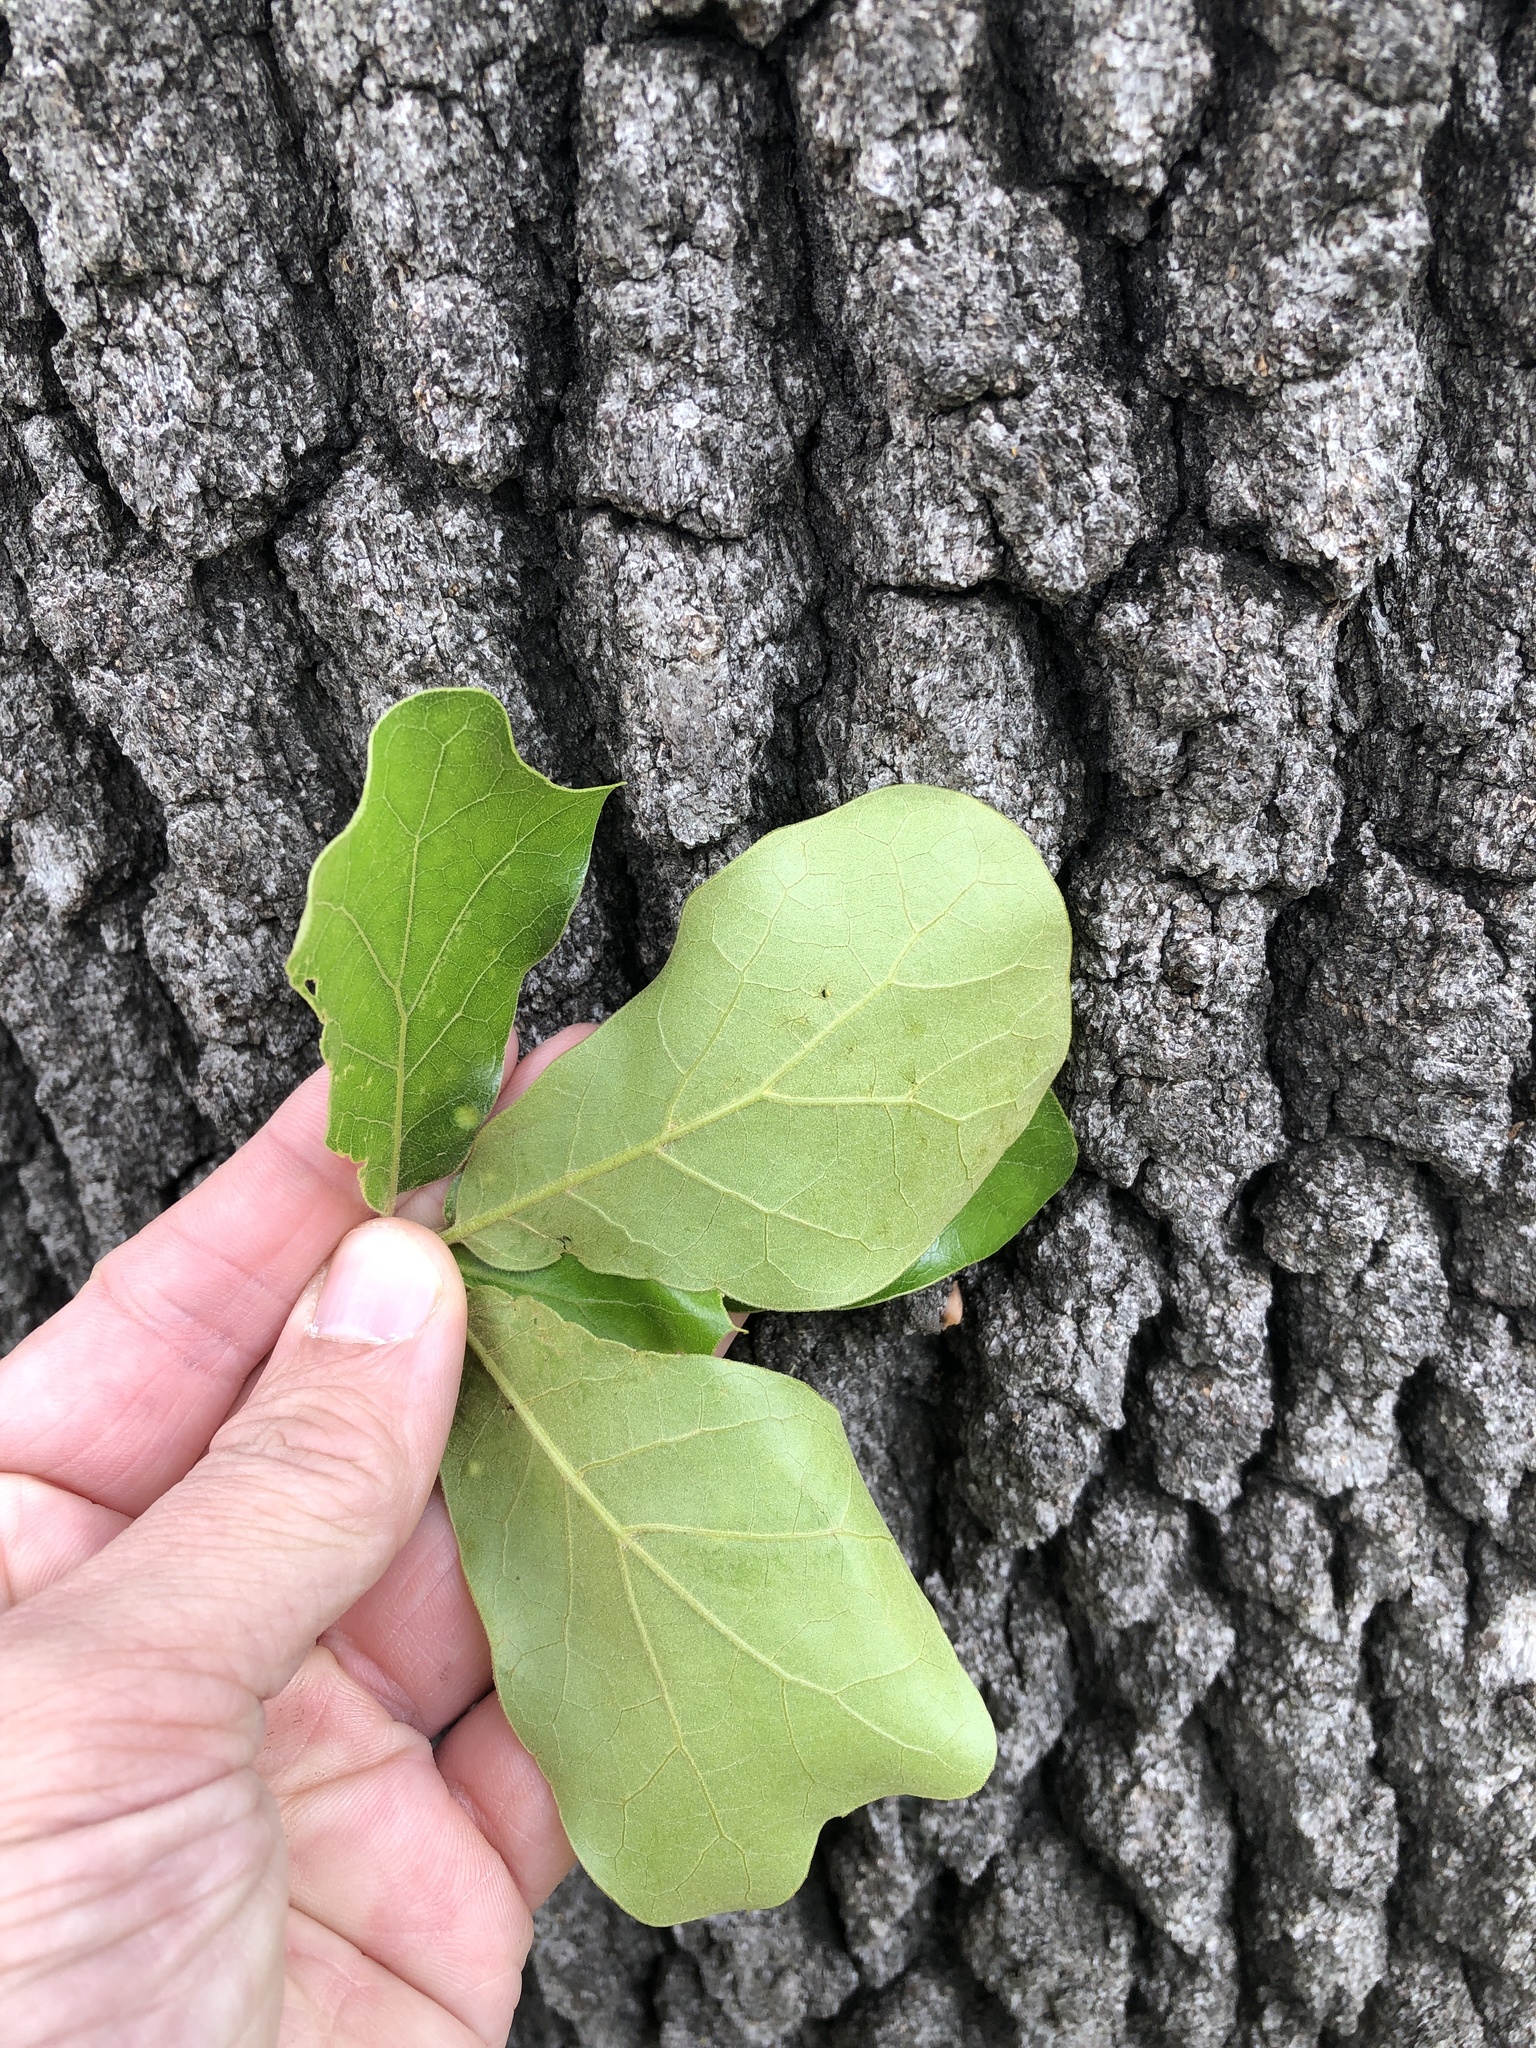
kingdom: Plantae
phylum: Tracheophyta
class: Magnoliopsida
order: Fagales
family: Fagaceae
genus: Quercus
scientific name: Quercus marilandica
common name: Blackjack oak
